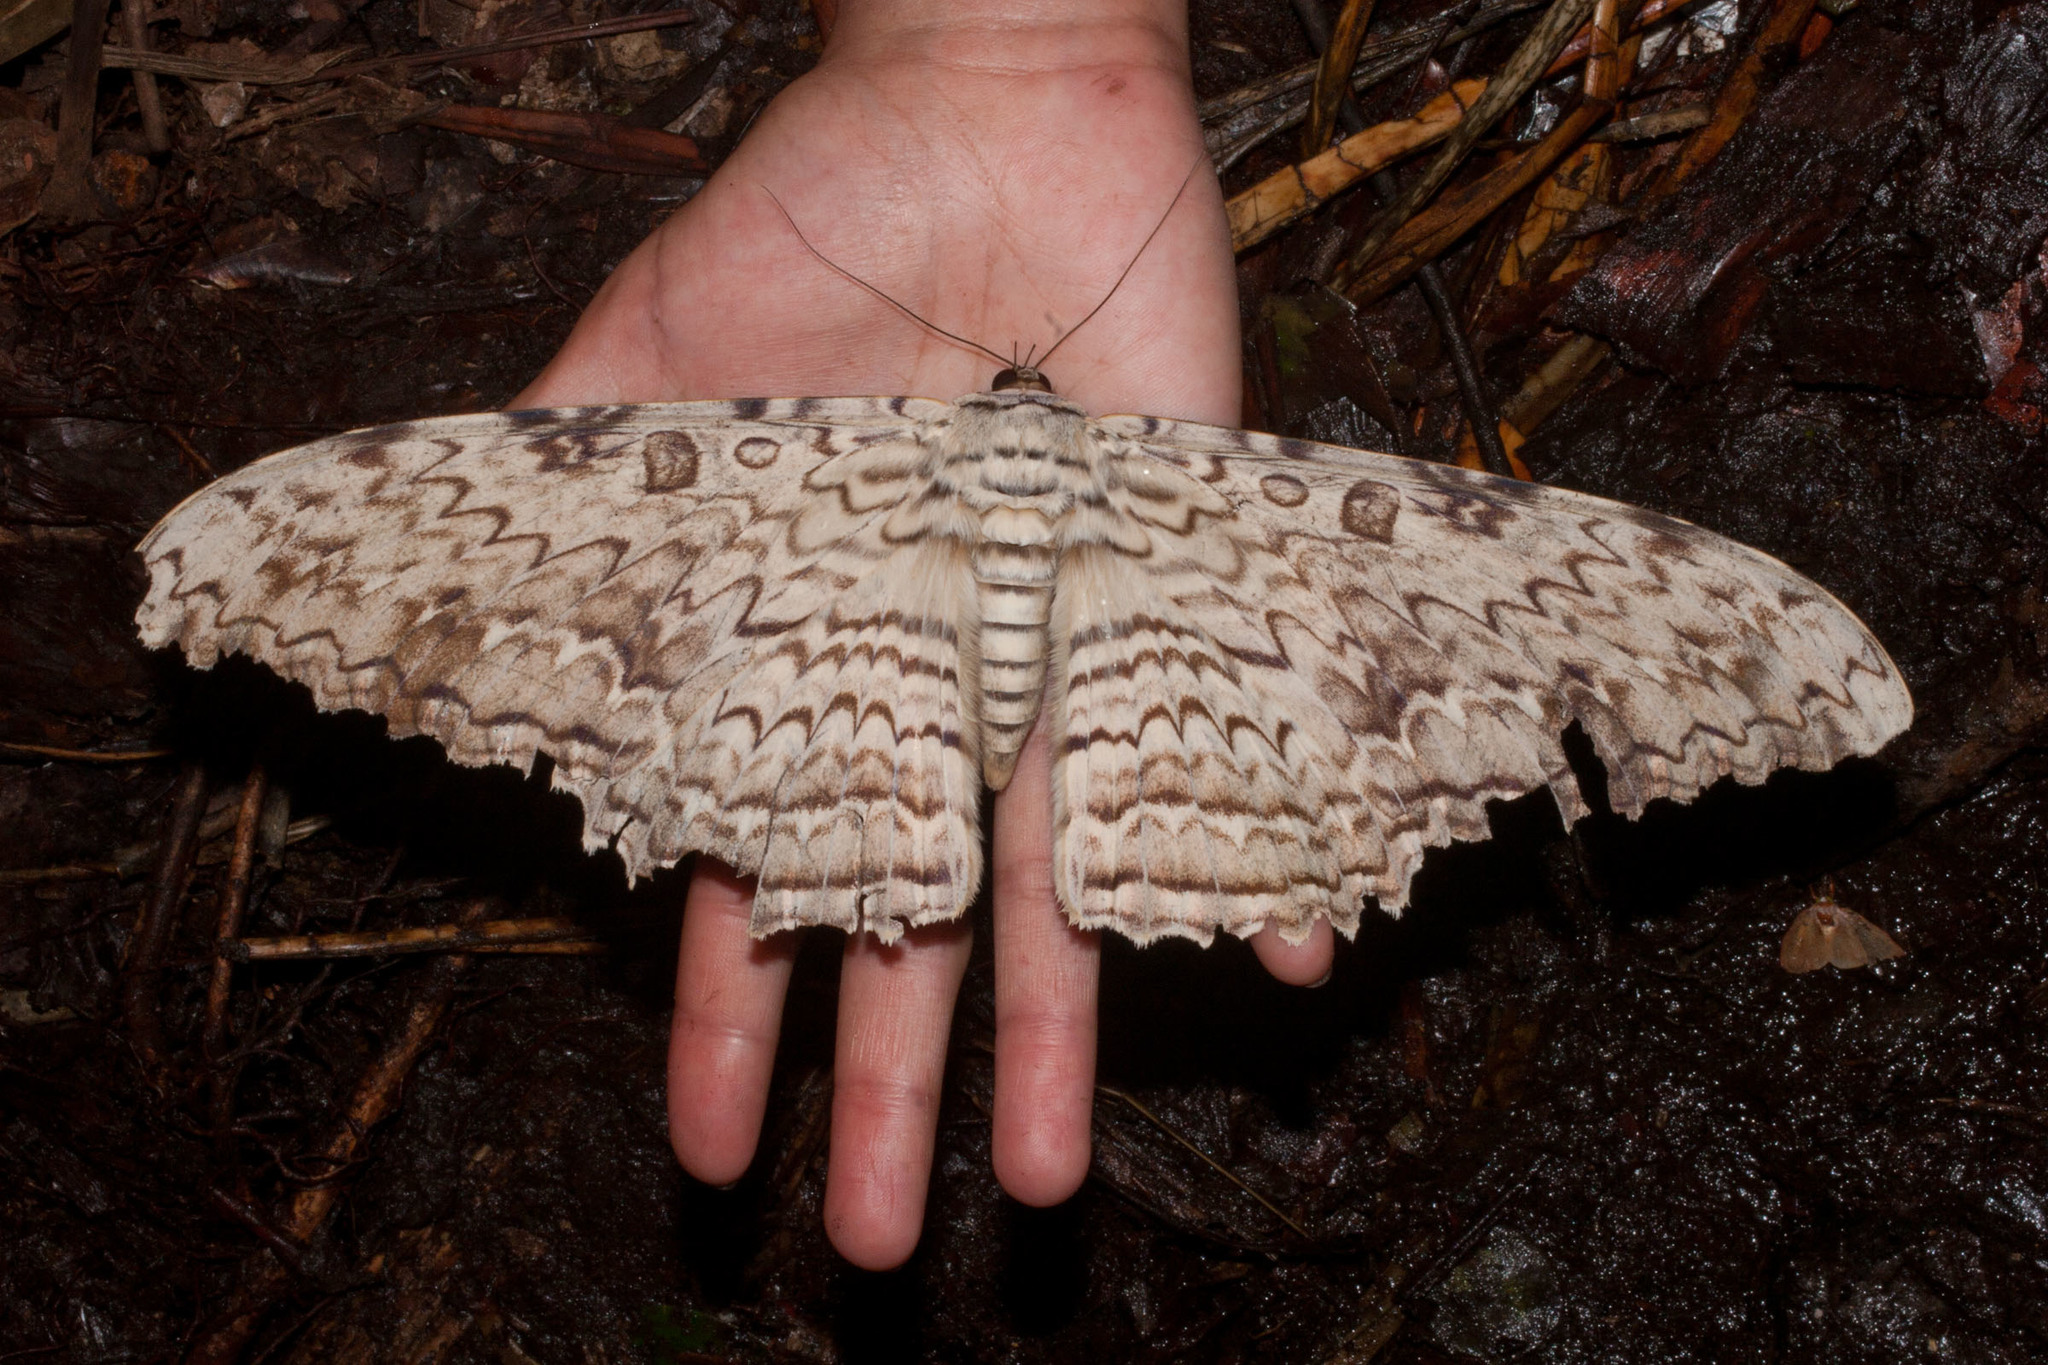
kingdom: Animalia
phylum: Arthropoda
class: Insecta
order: Lepidoptera
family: Erebidae
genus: Thysania
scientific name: Thysania agrippina
